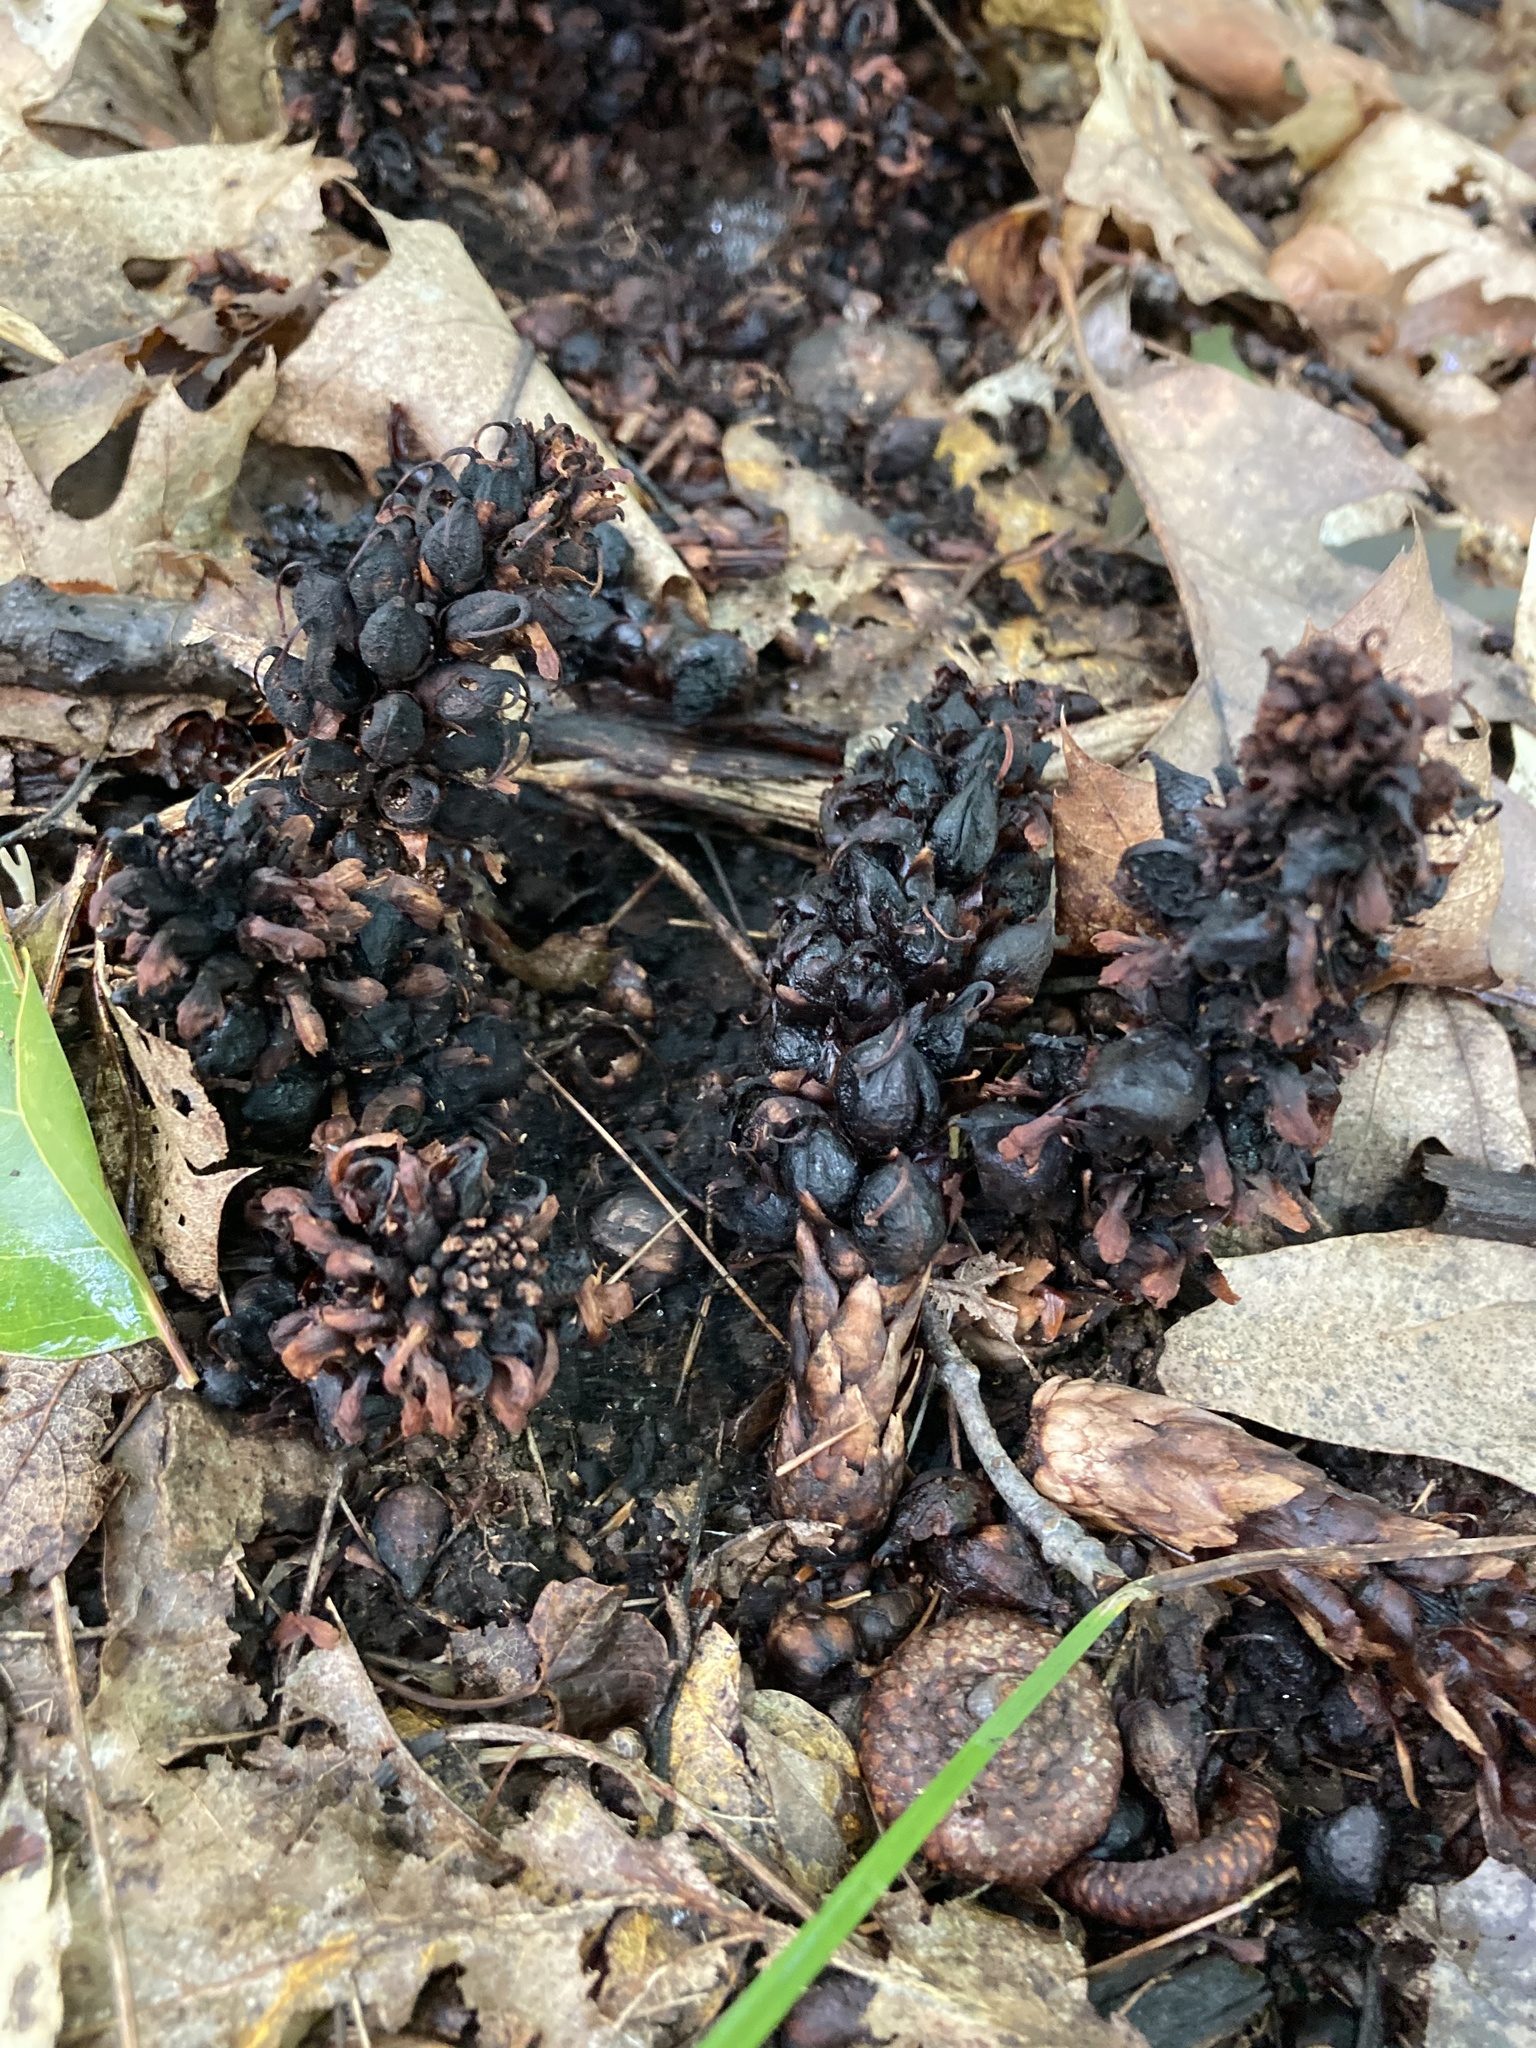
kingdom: Plantae
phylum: Tracheophyta
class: Magnoliopsida
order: Lamiales
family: Orobanchaceae
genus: Conopholis
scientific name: Conopholis americana
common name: American cancer-root
